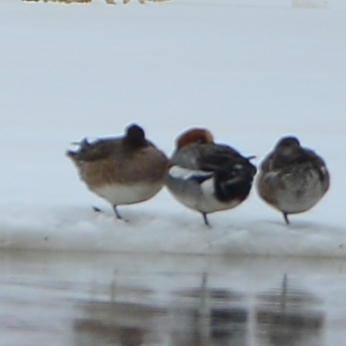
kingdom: Animalia
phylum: Chordata
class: Aves
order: Anseriformes
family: Anatidae
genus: Mareca
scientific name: Mareca penelope
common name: Eurasian wigeon
